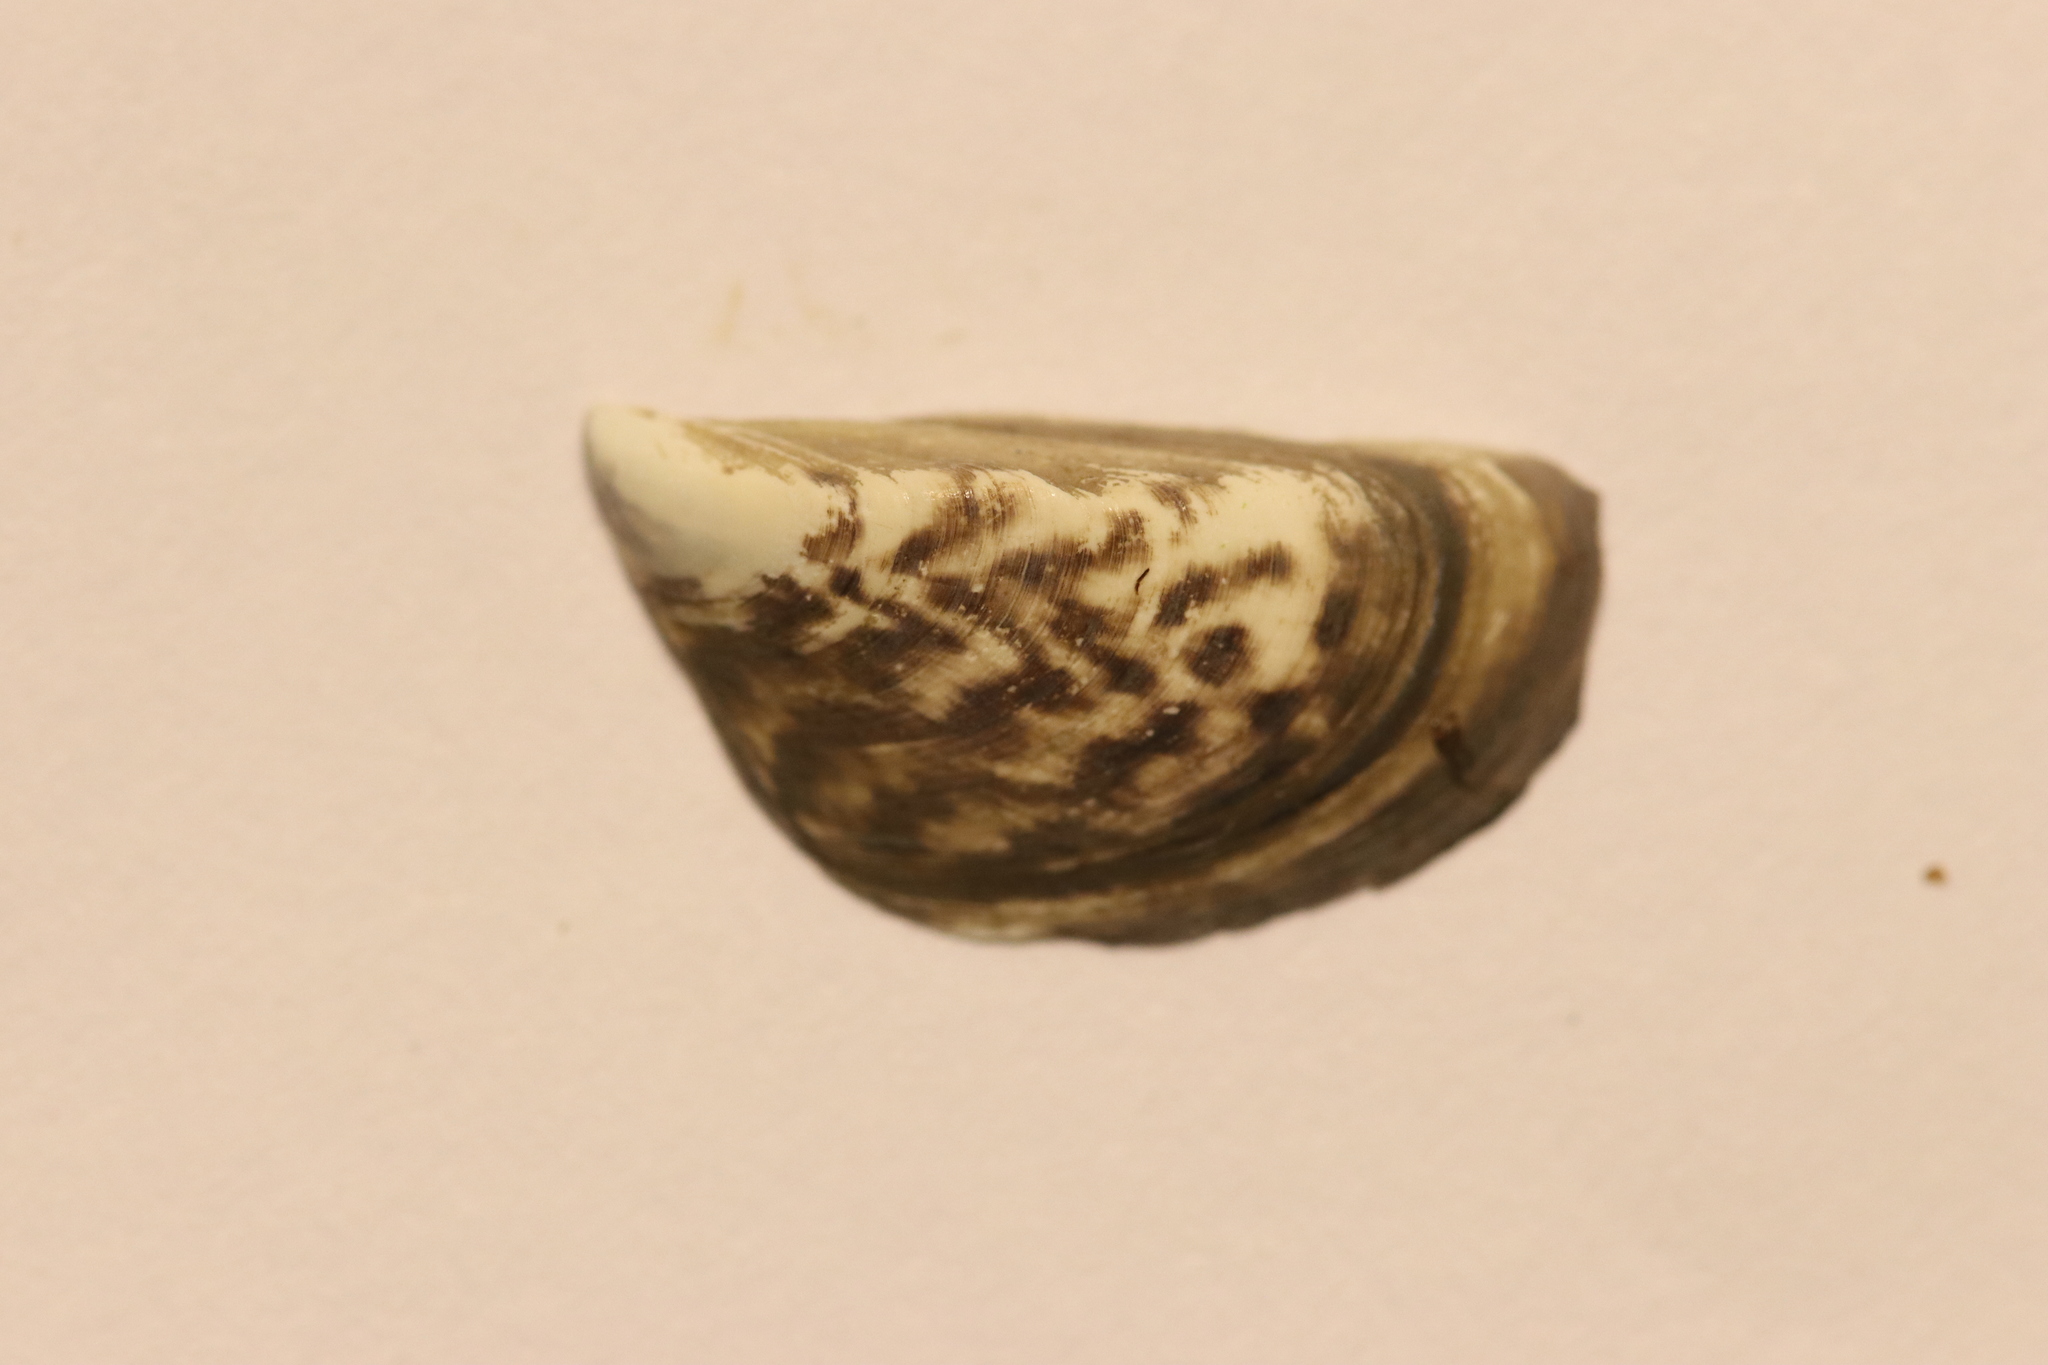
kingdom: Animalia
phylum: Mollusca
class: Bivalvia
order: Myida
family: Dreissenidae
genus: Dreissena
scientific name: Dreissena polymorpha
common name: Zebra mussel
